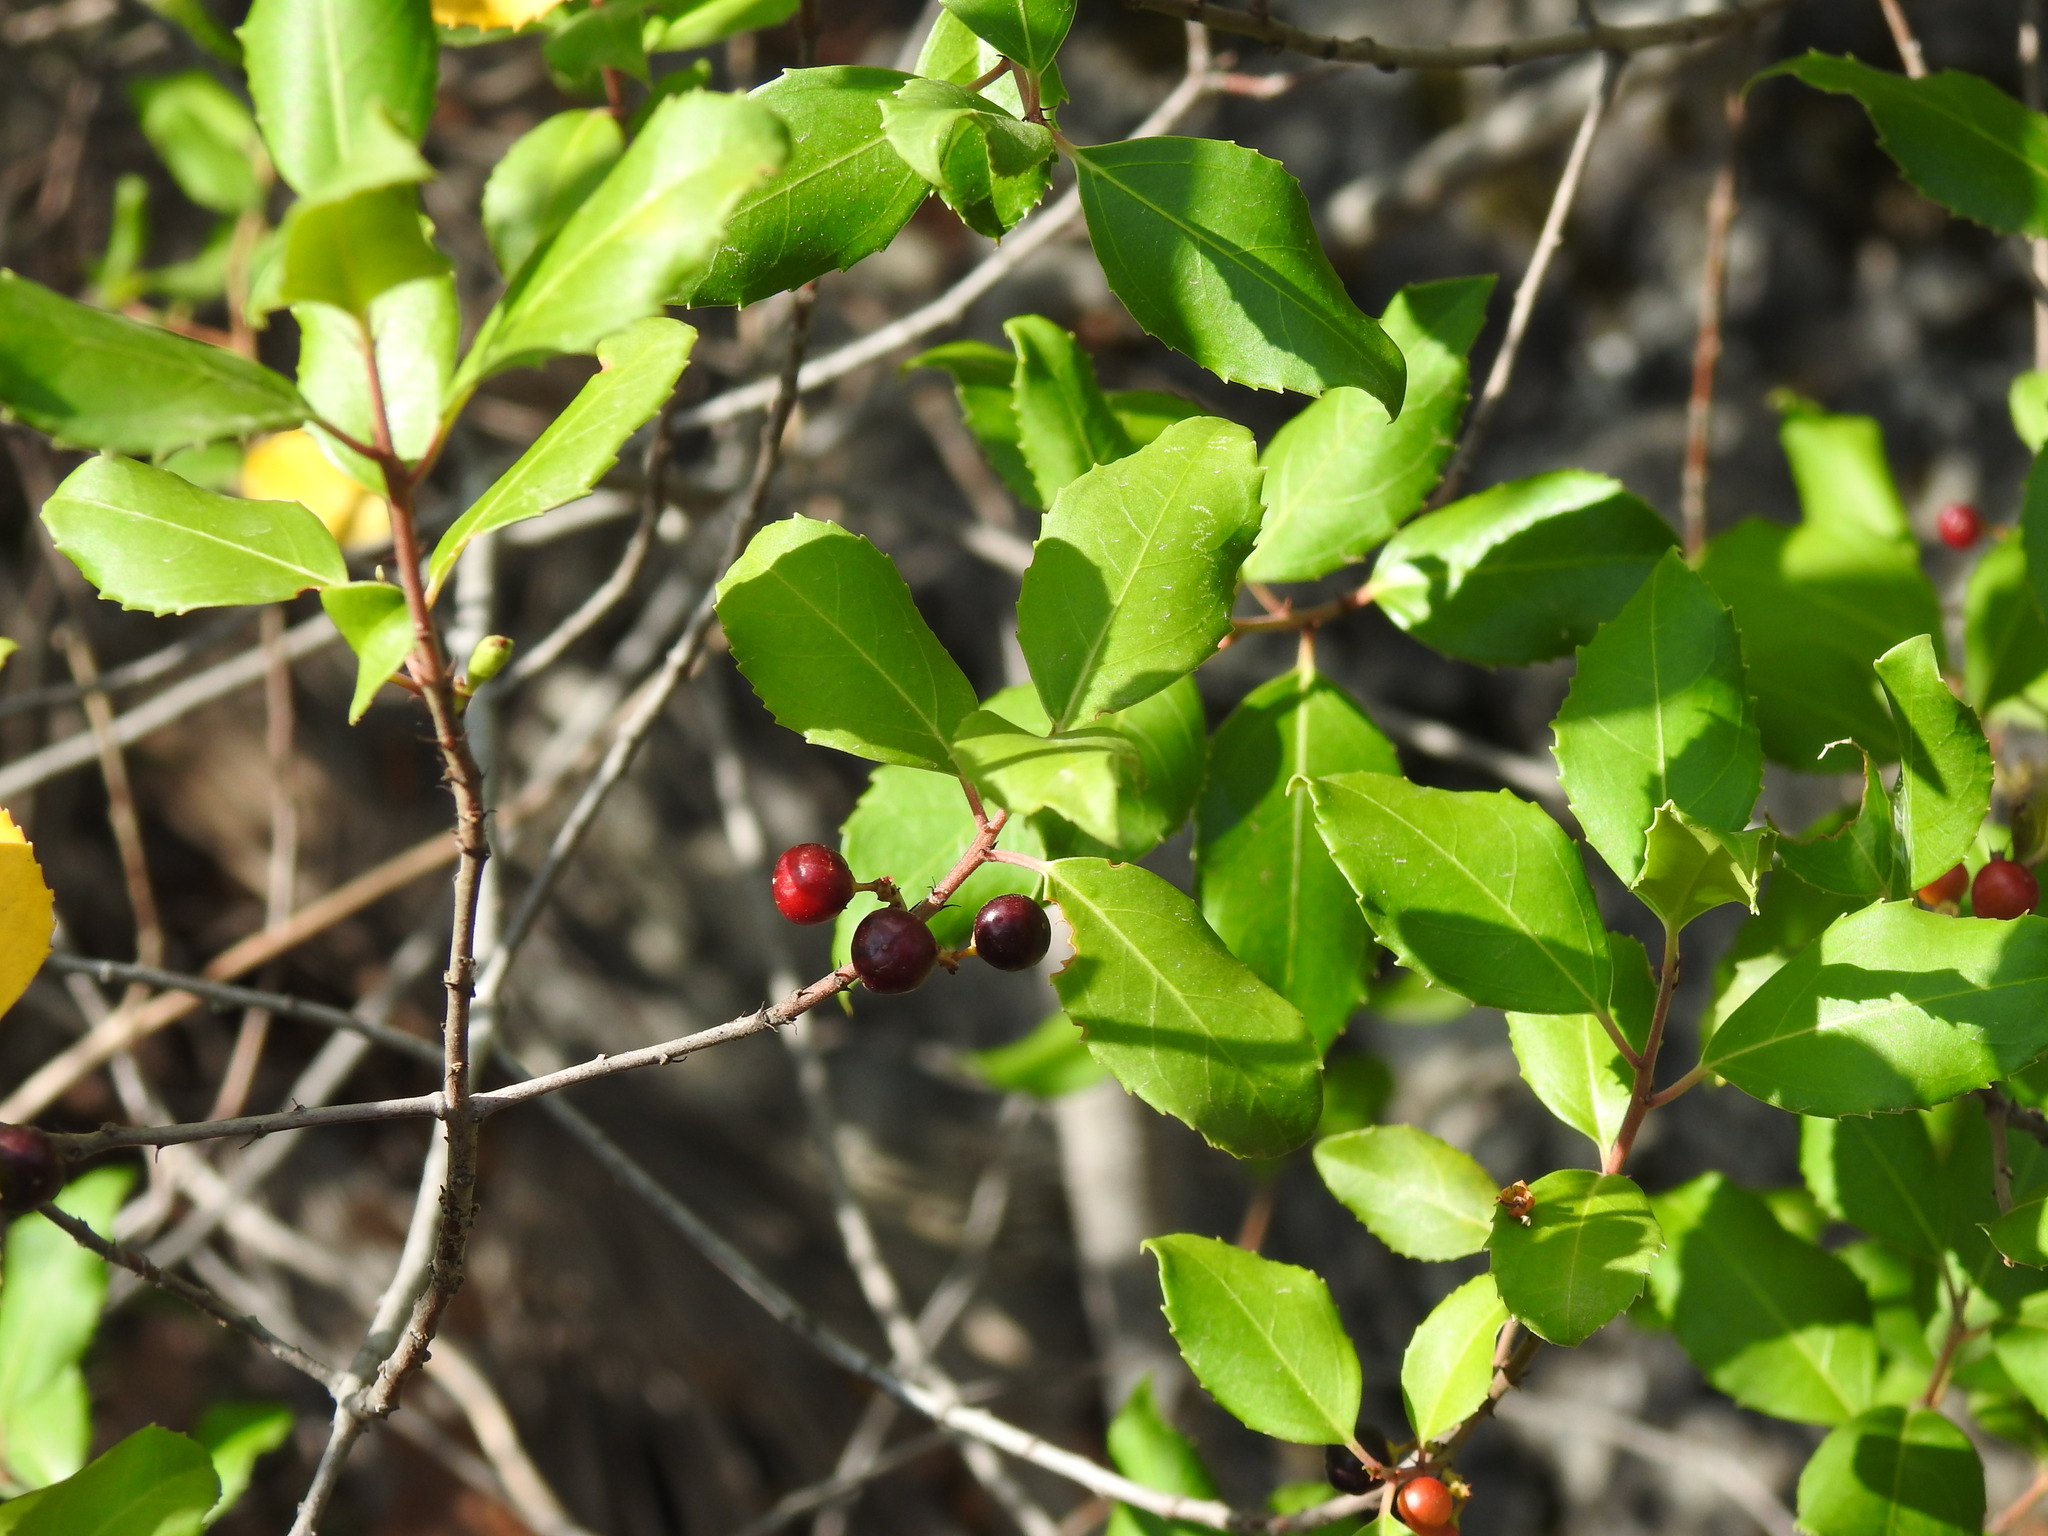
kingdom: Plantae
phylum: Tracheophyta
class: Magnoliopsida
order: Rosales
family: Rhamnaceae
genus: Rhamnus
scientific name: Rhamnus alaternus
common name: Mediterranean buckthorn
